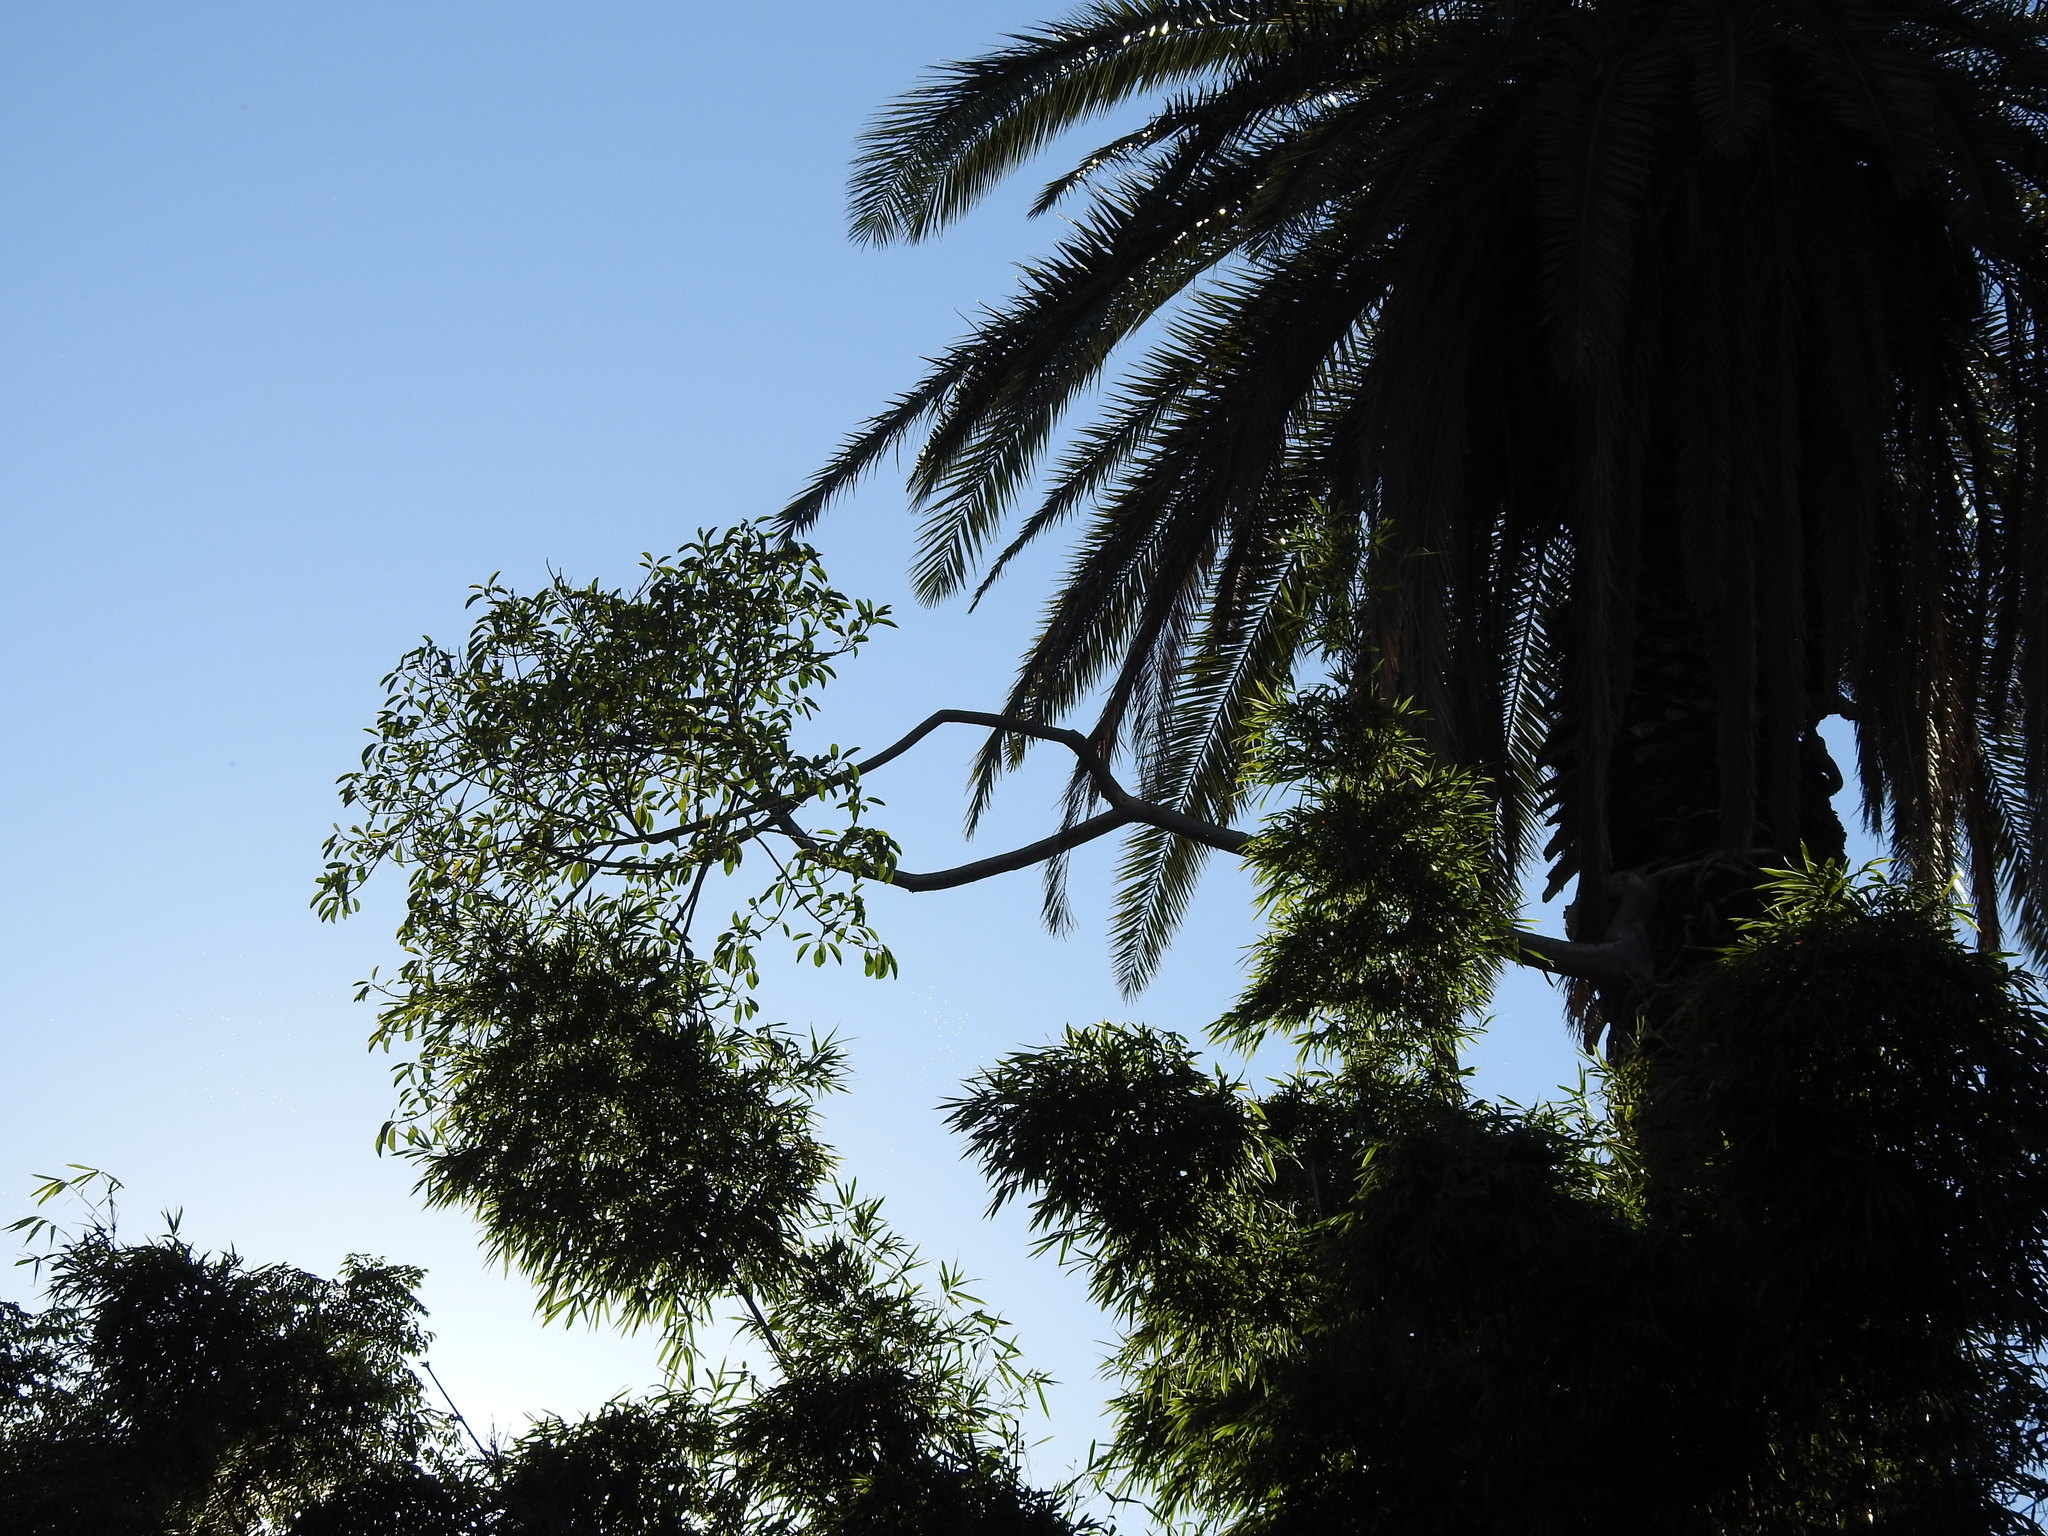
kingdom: Plantae
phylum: Tracheophyta
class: Magnoliopsida
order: Rosales
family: Moraceae
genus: Ficus
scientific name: Ficus luschnathiana
